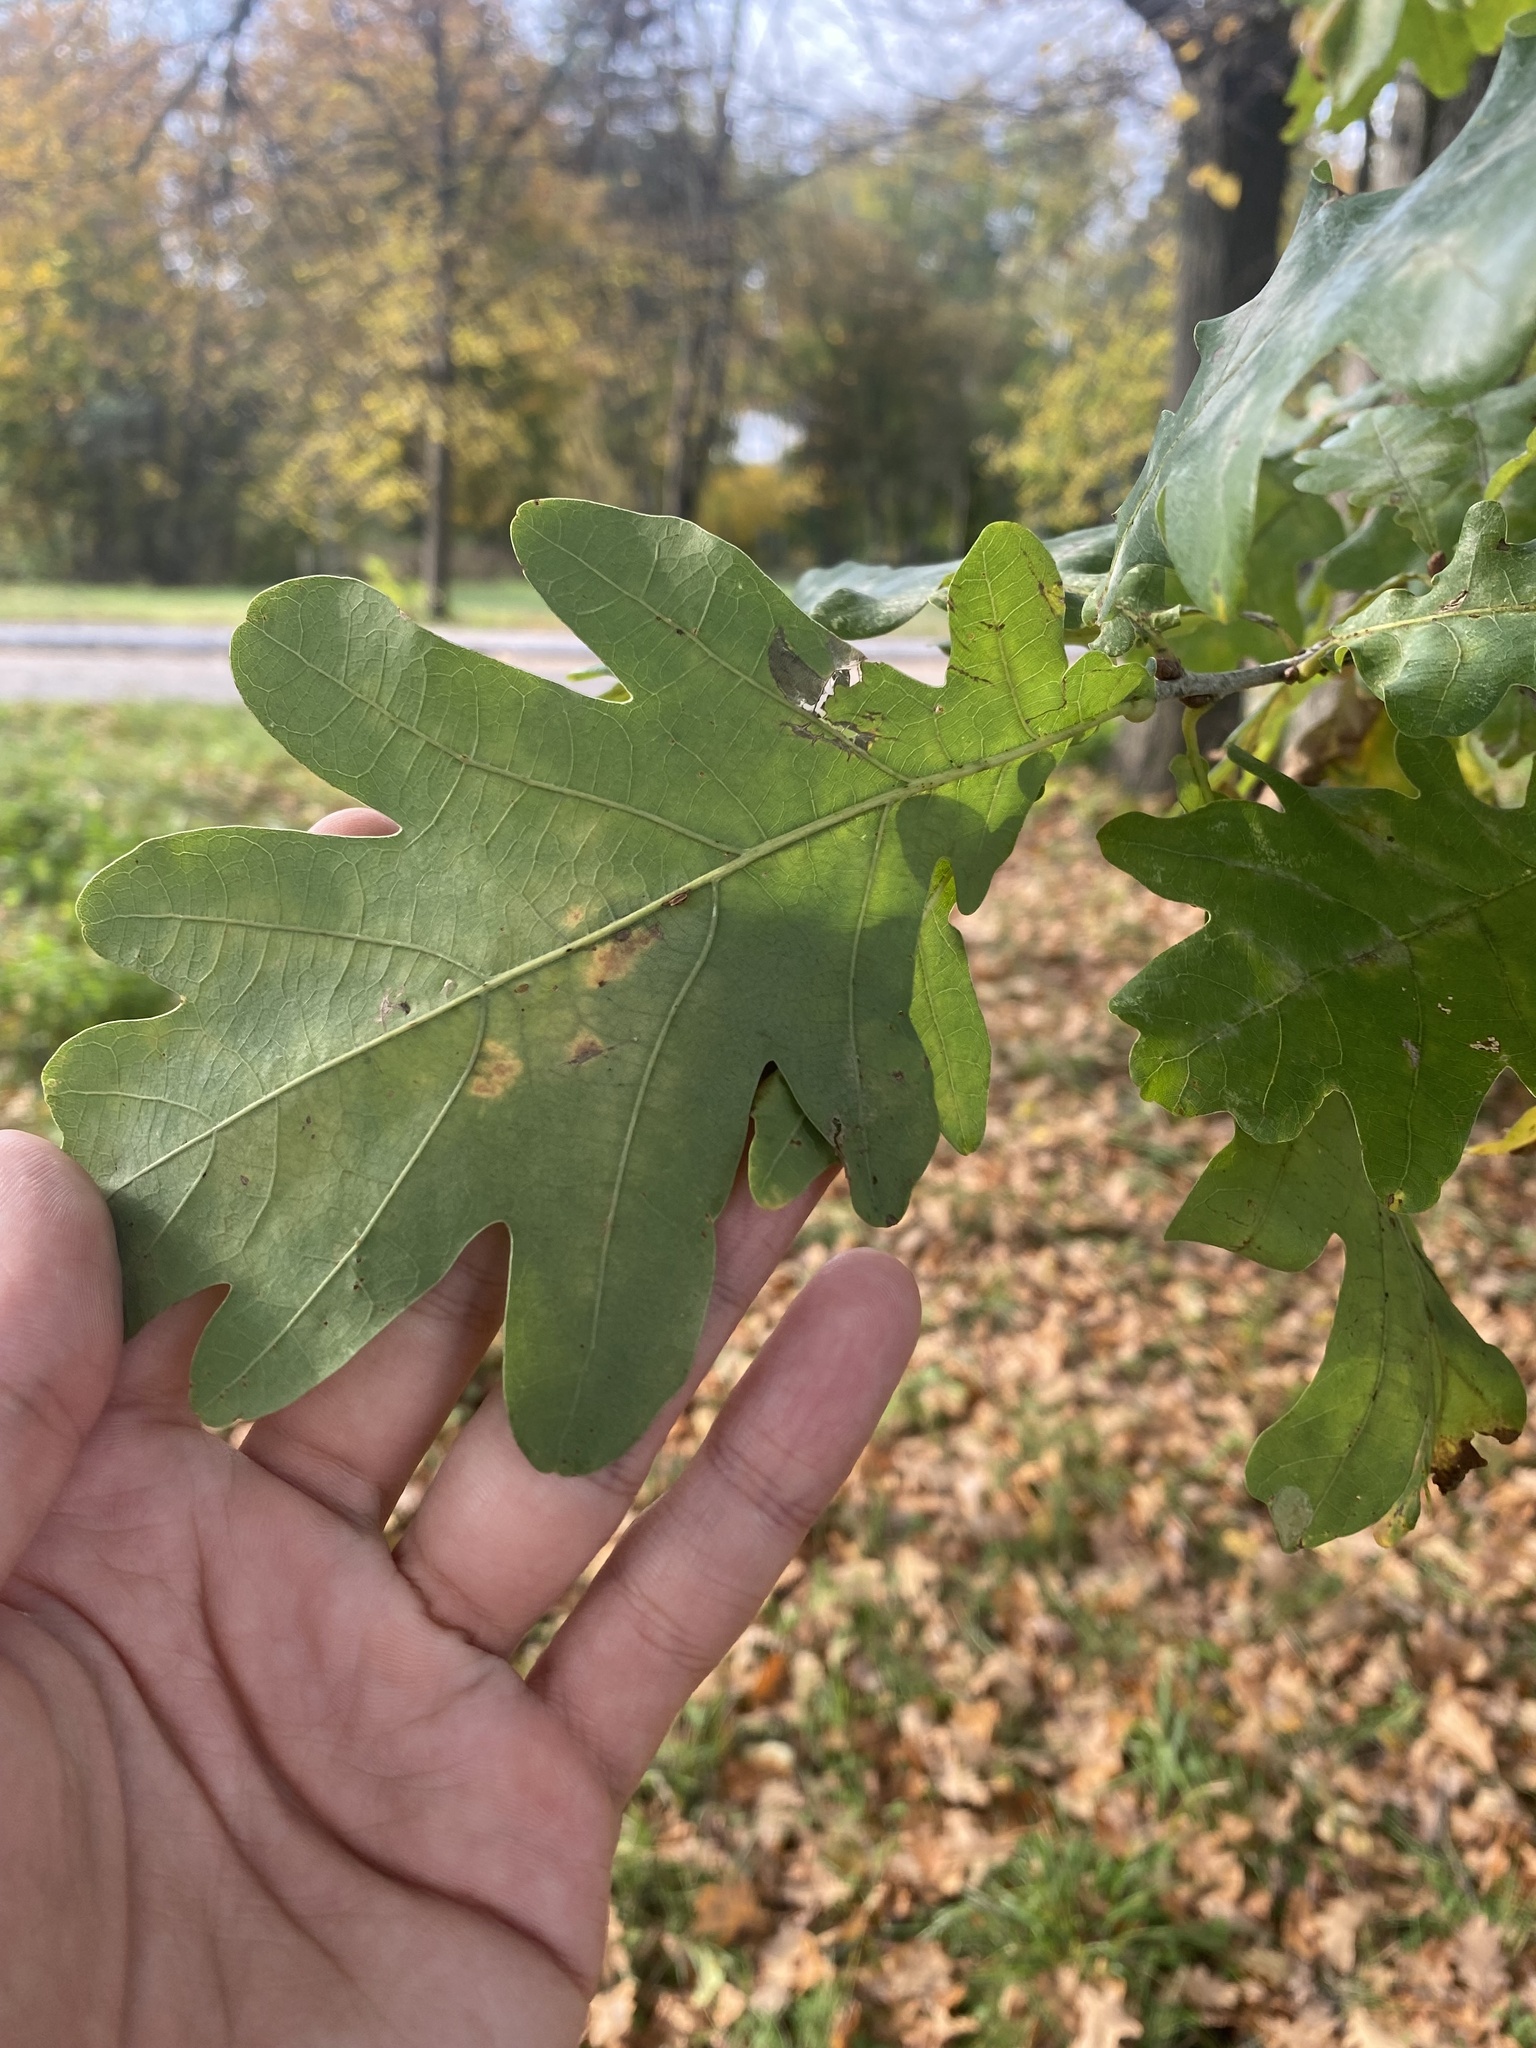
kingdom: Plantae
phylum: Tracheophyta
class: Magnoliopsida
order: Fagales
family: Fagaceae
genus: Quercus
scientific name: Quercus robur
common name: Pedunculate oak
